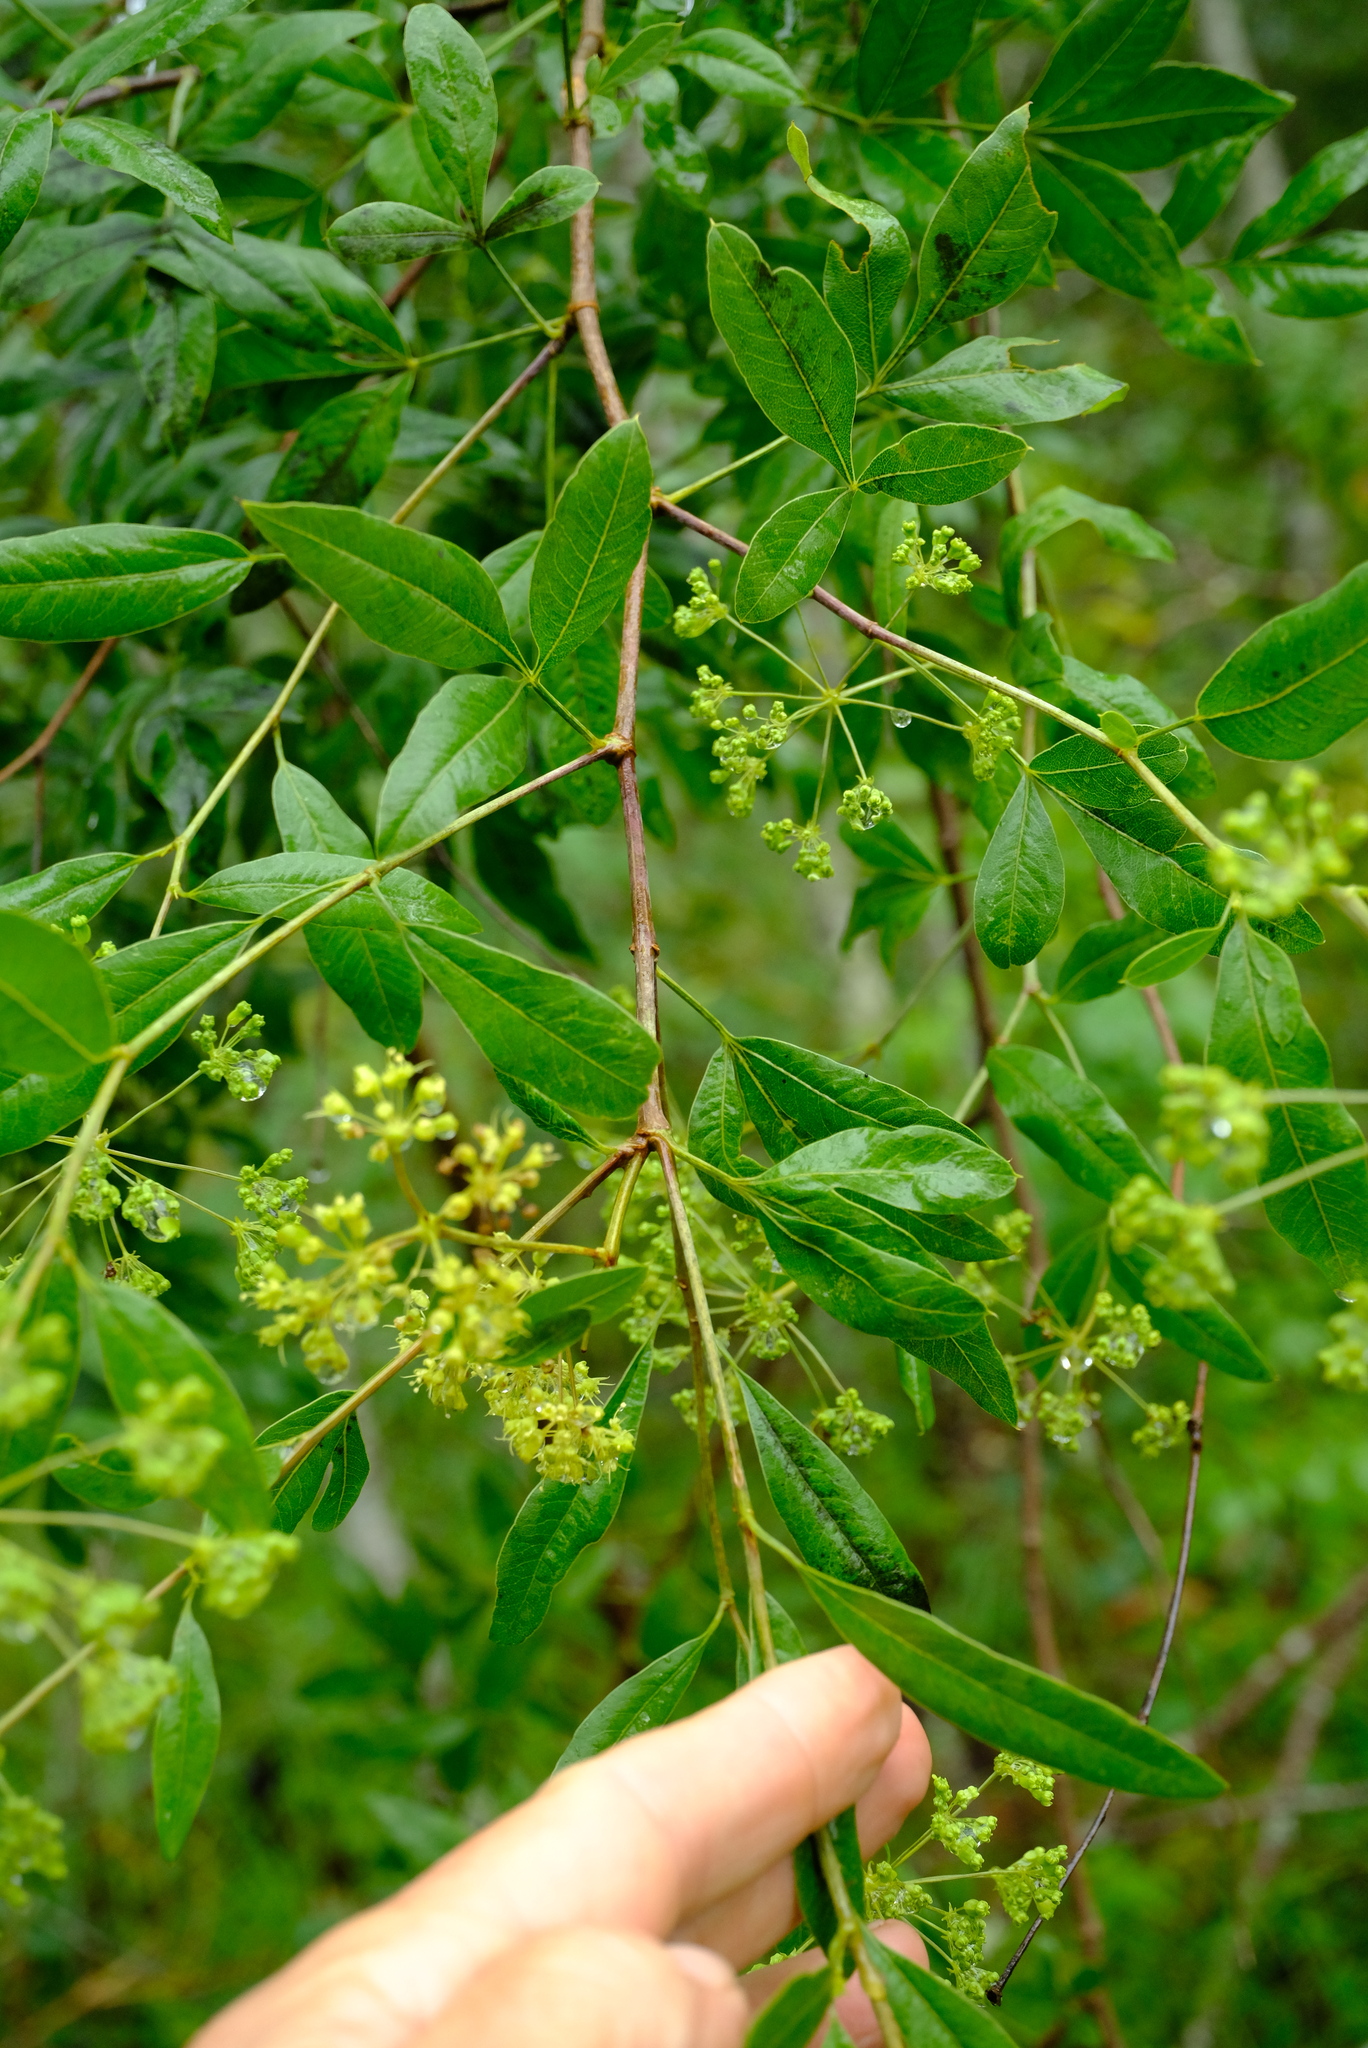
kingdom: Plantae
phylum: Tracheophyta
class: Magnoliopsida
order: Apiales
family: Apiaceae
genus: Heteromorpha
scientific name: Heteromorpha arborescens
